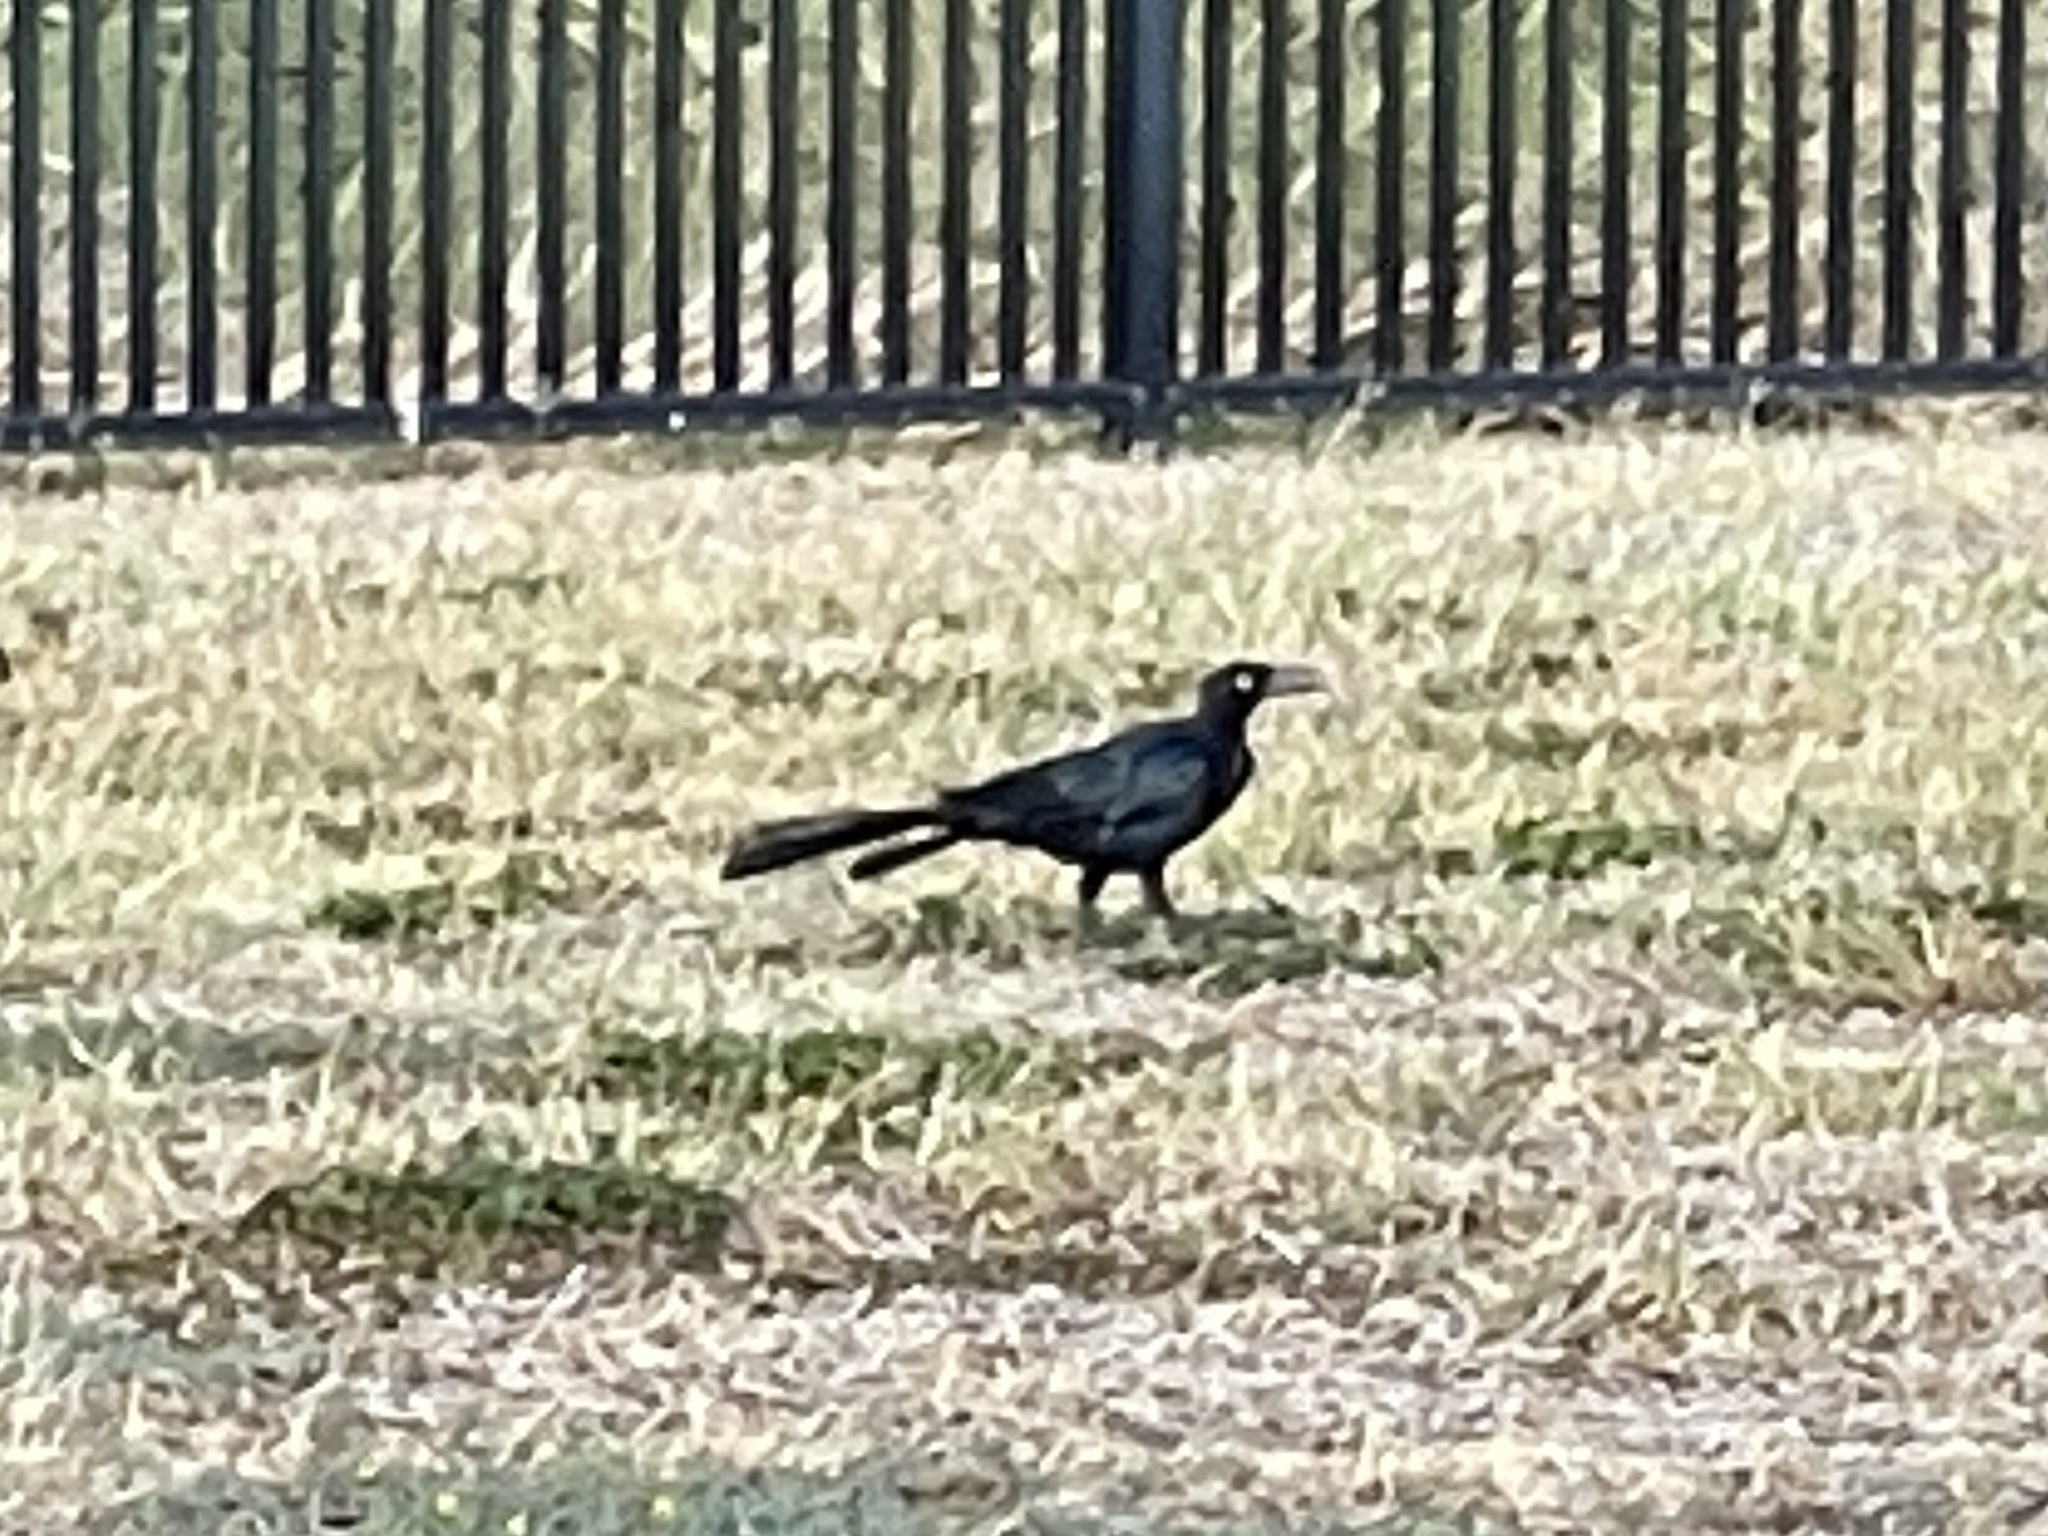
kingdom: Animalia
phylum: Chordata
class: Aves
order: Passeriformes
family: Icteridae
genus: Quiscalus
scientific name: Quiscalus mexicanus
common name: Great-tailed grackle
